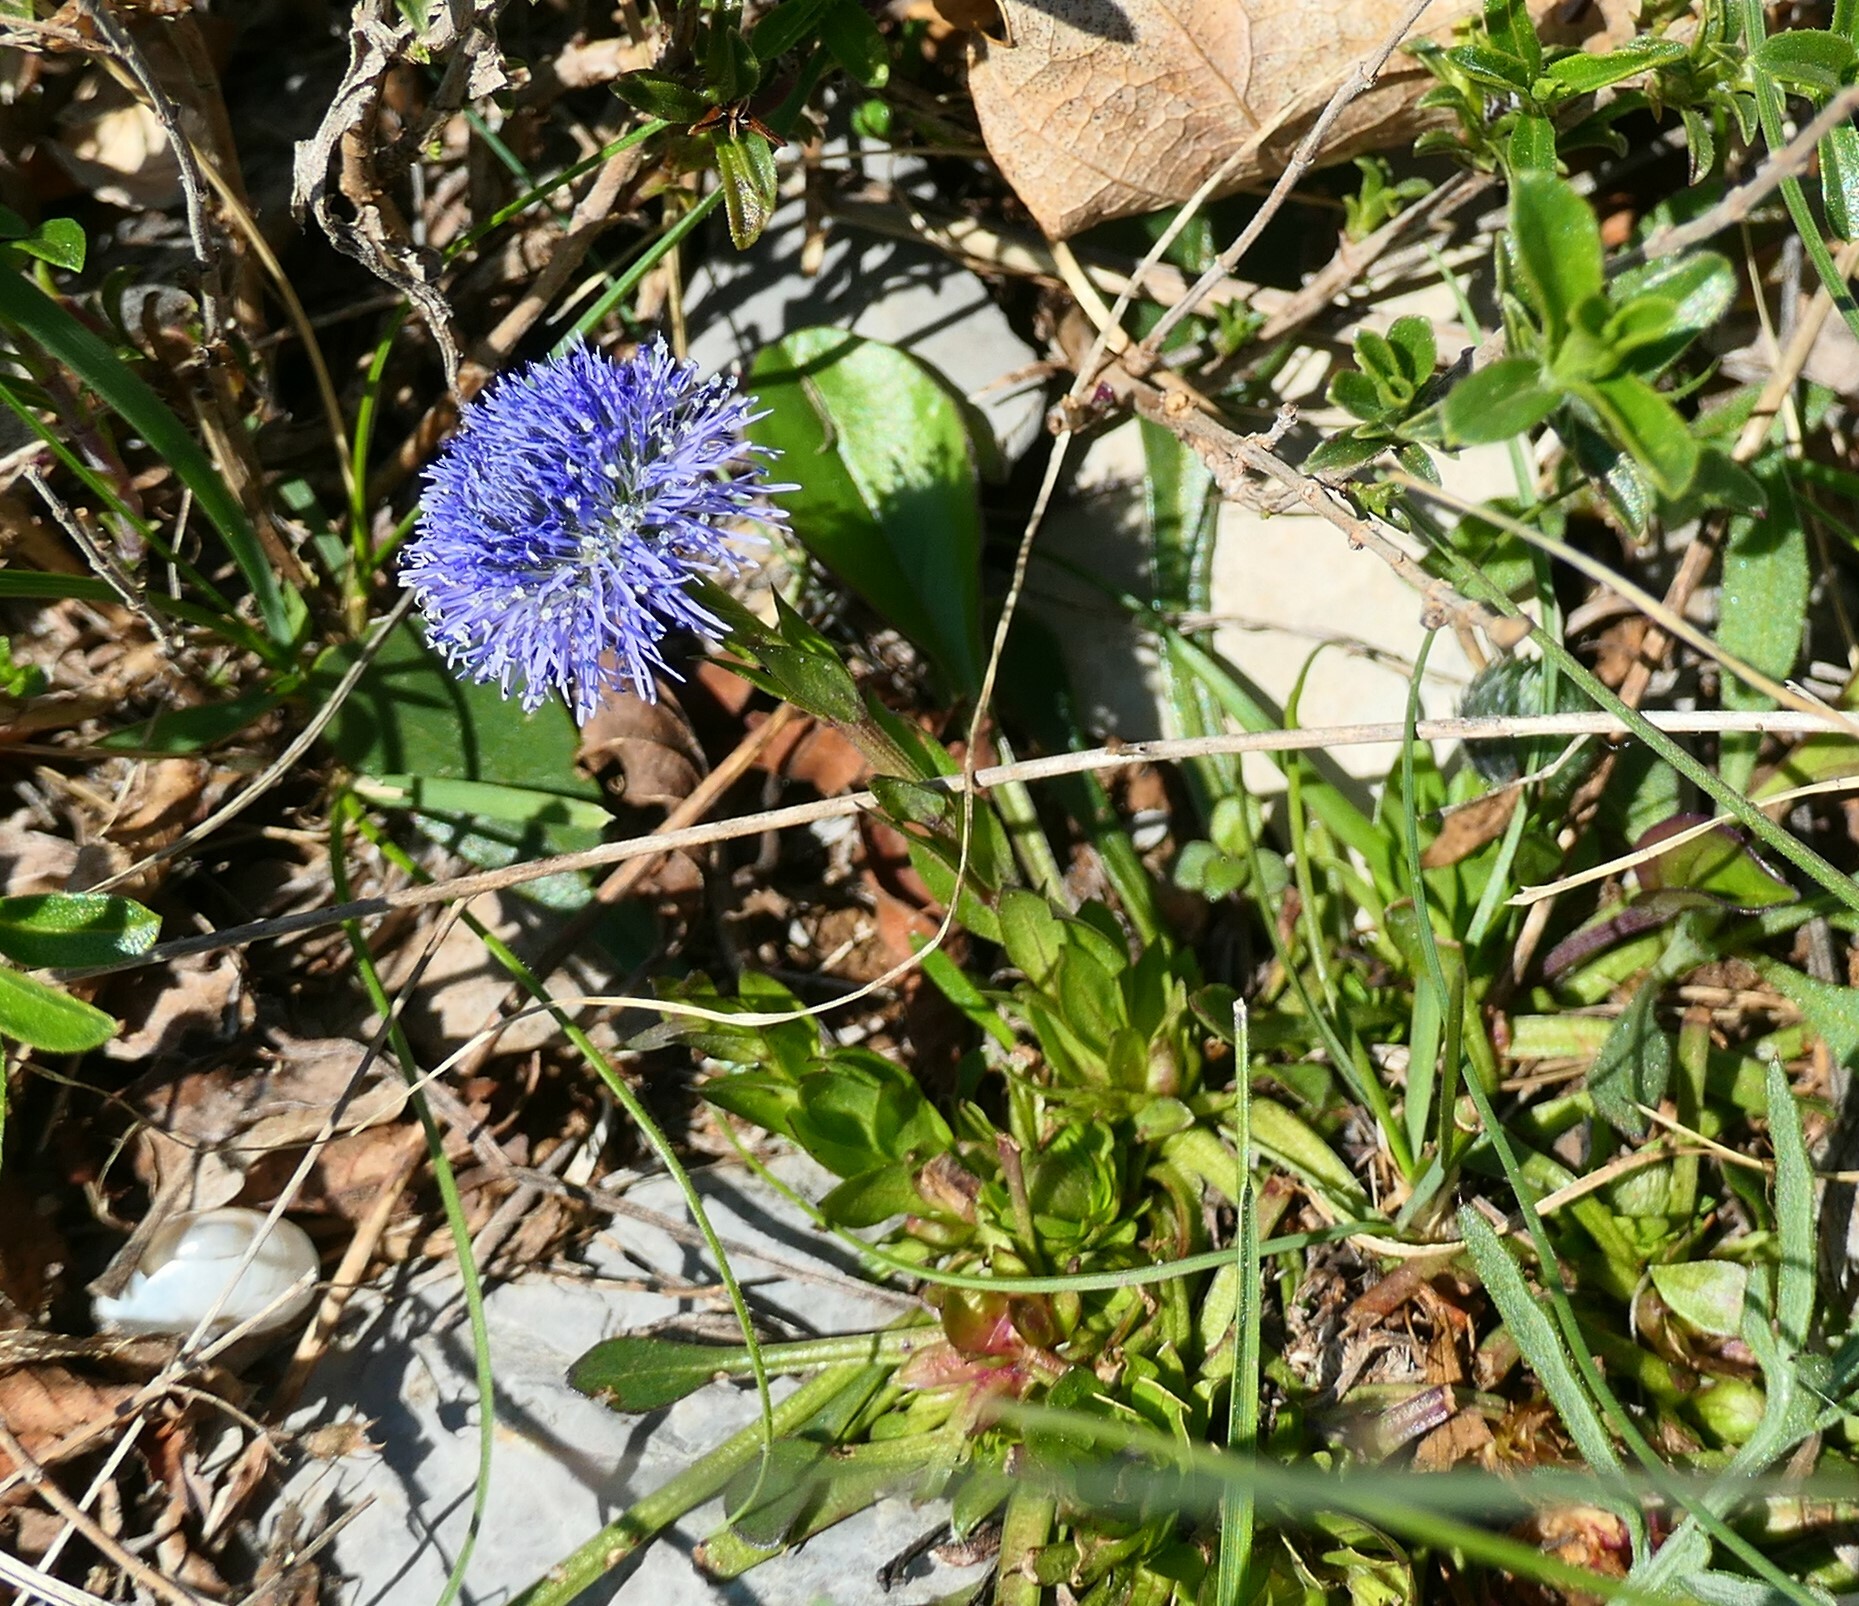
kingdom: Plantae
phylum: Tracheophyta
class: Magnoliopsida
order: Lamiales
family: Plantaginaceae
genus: Globularia
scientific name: Globularia bisnagarica
